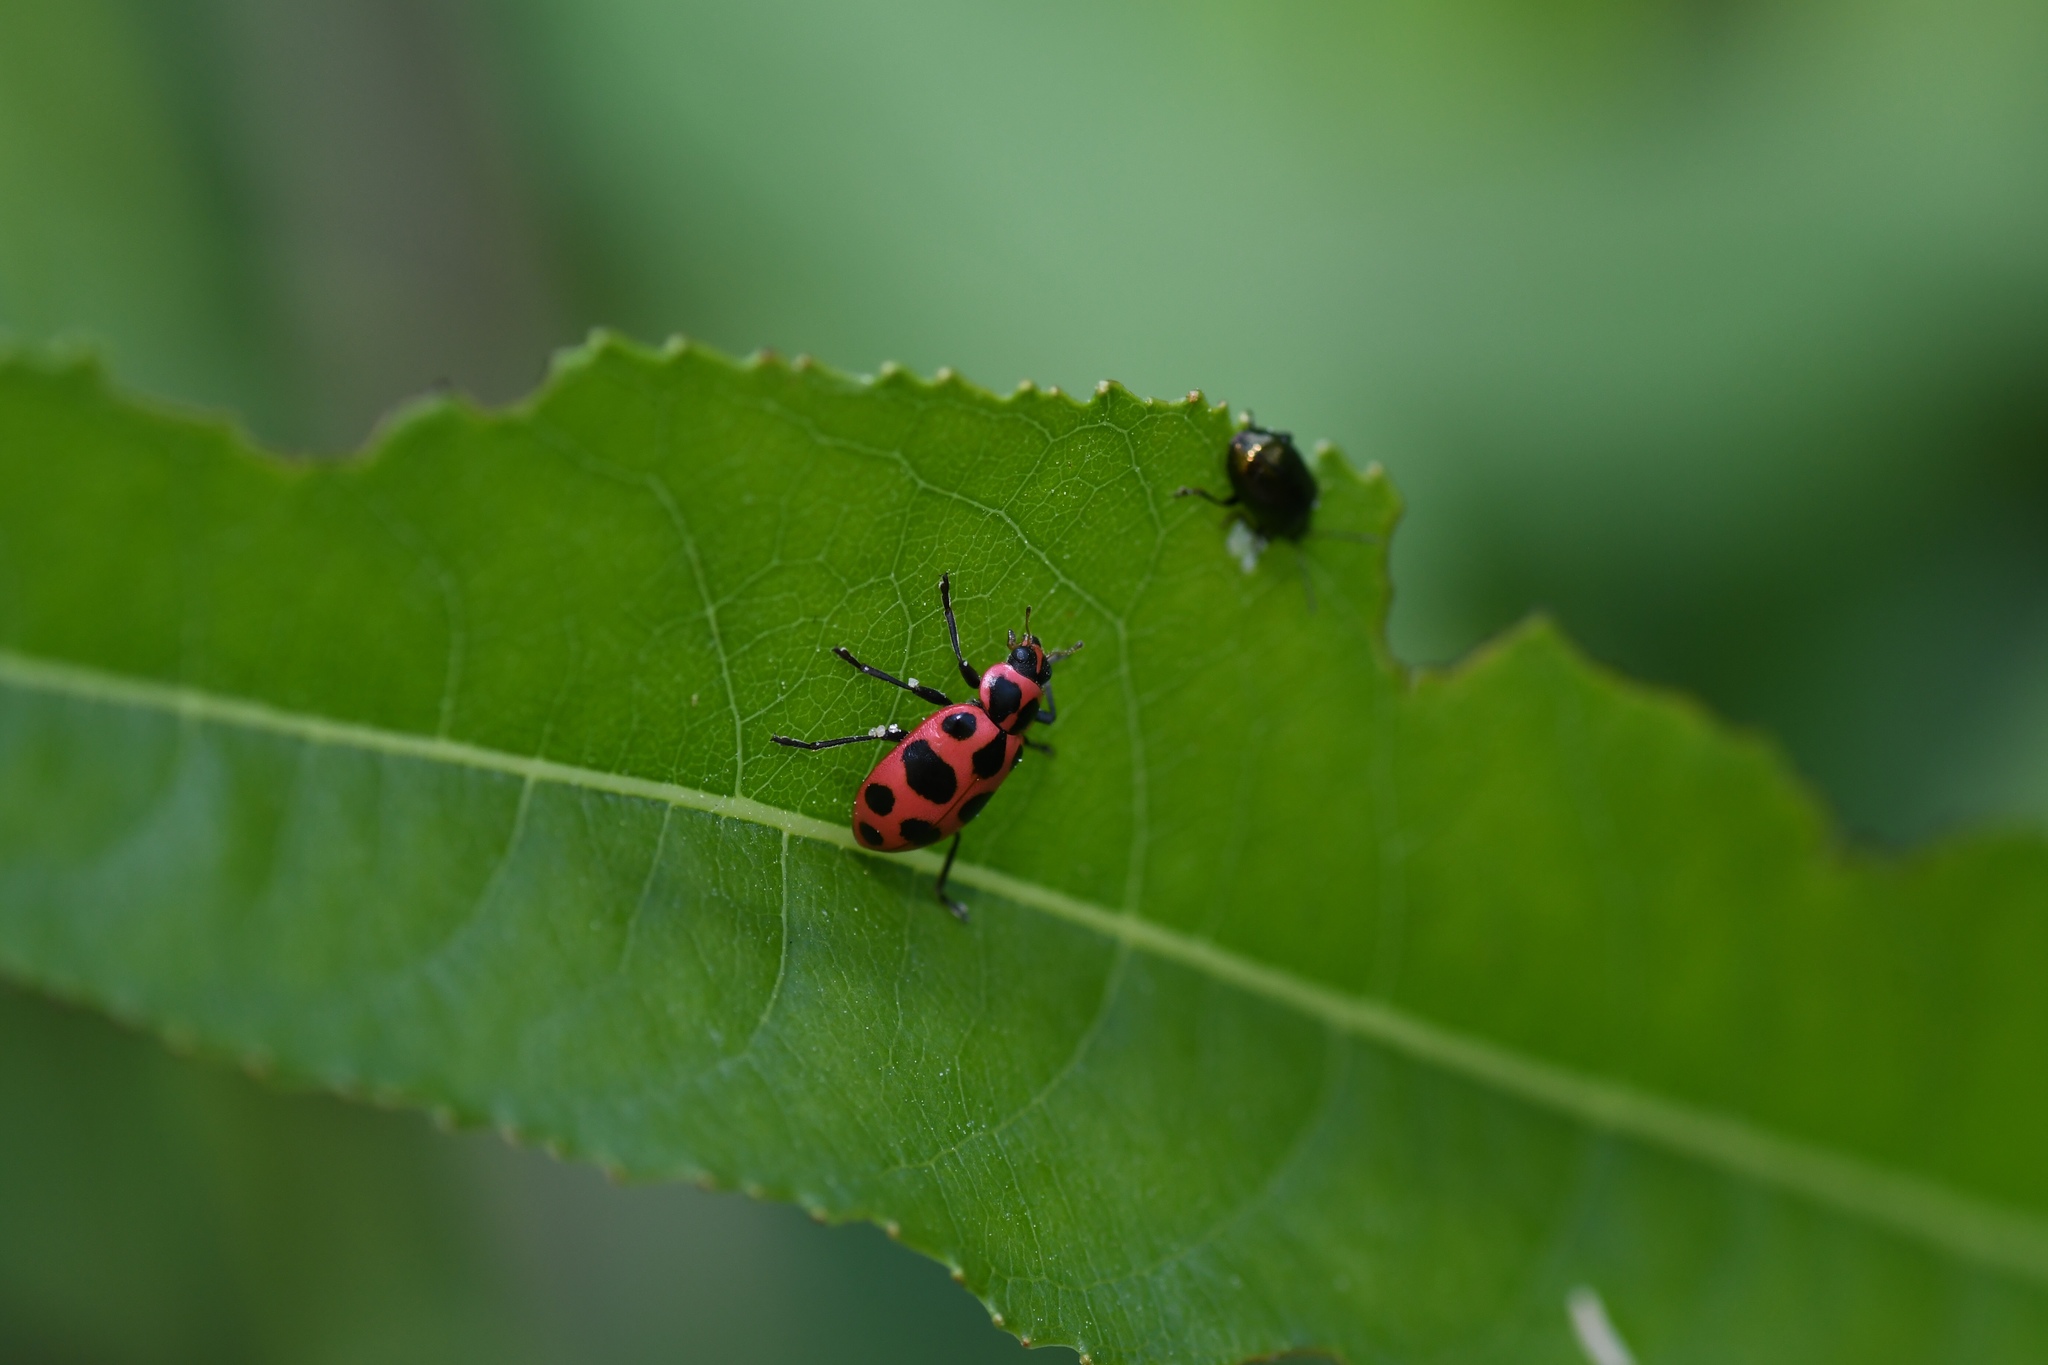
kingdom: Animalia
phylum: Arthropoda
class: Insecta
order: Coleoptera
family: Coccinellidae
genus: Coleomegilla
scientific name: Coleomegilla maculata
